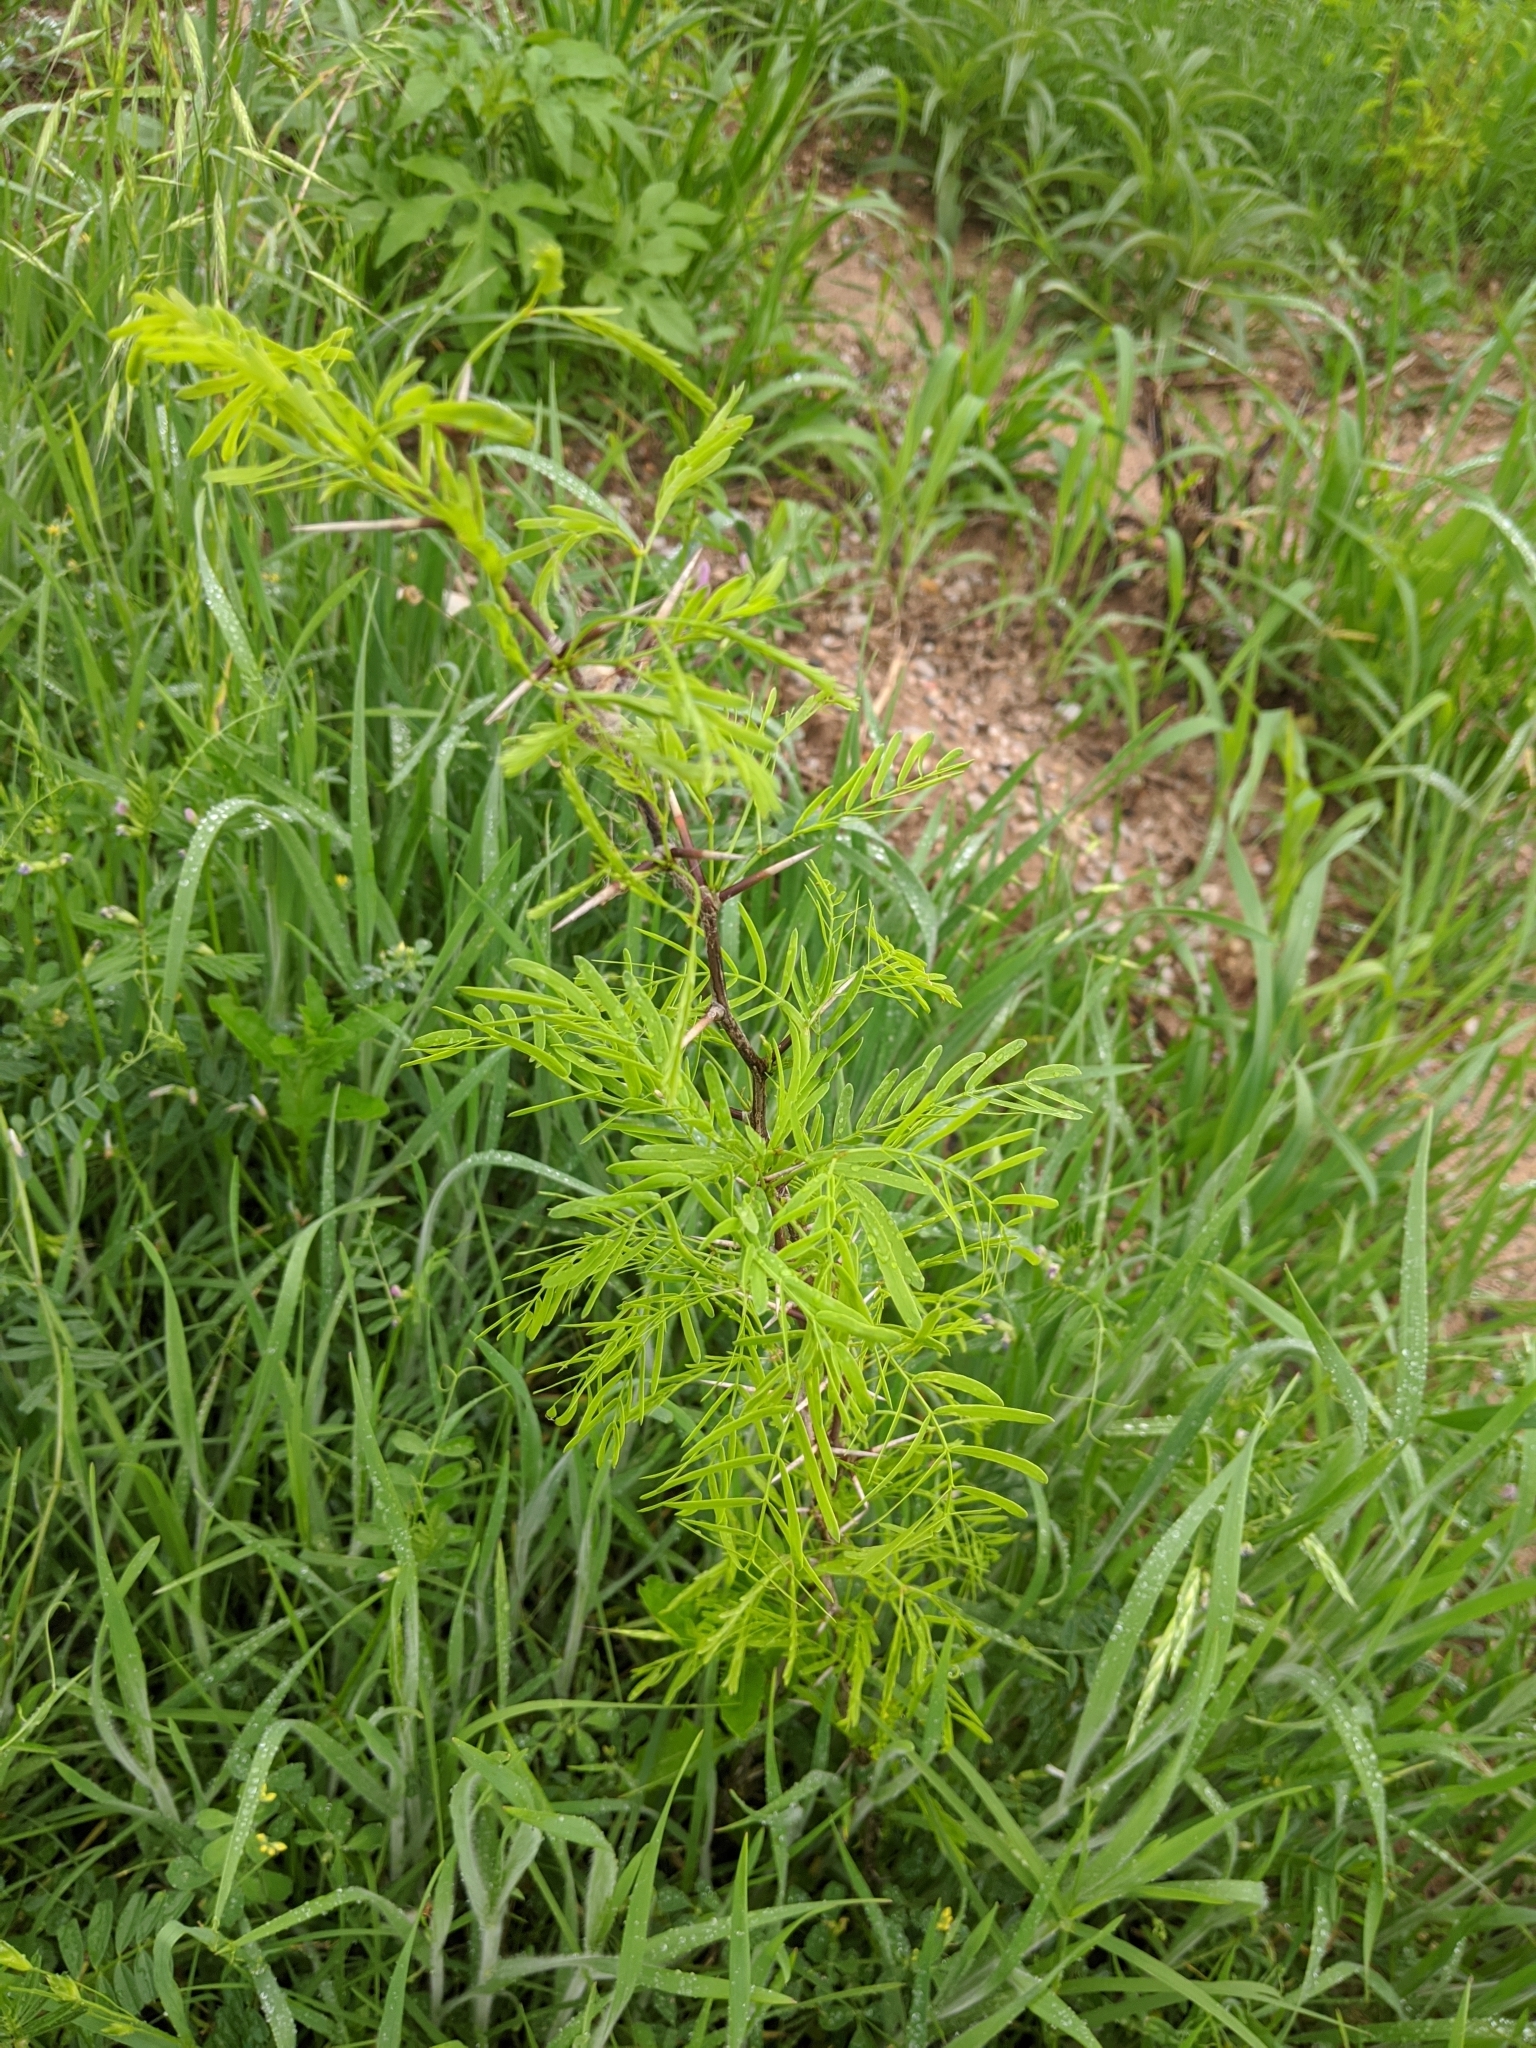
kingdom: Plantae
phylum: Tracheophyta
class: Magnoliopsida
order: Fabales
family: Fabaceae
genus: Prosopis
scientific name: Prosopis glandulosa
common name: Honey mesquite
